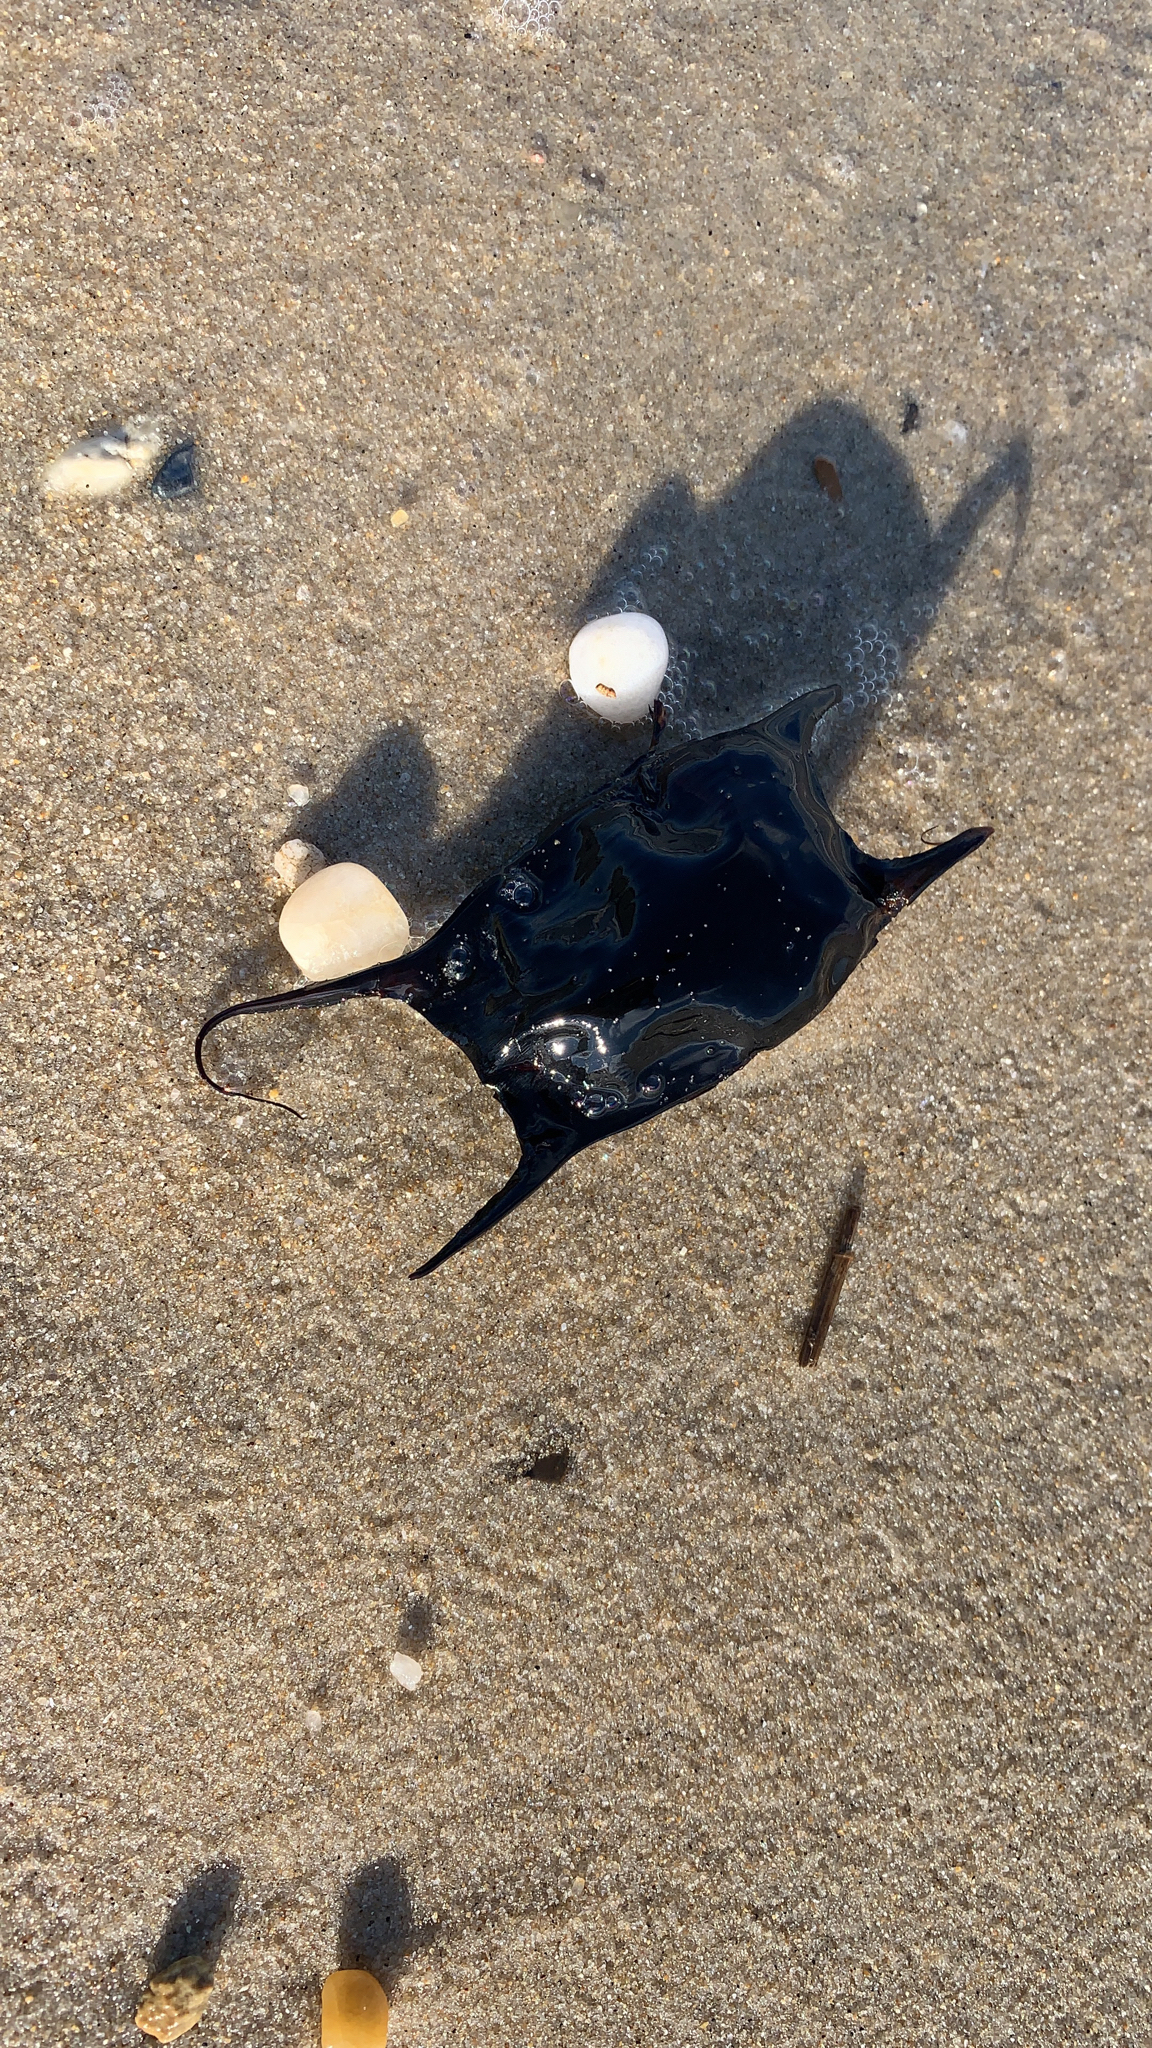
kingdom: Animalia
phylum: Chordata
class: Elasmobranchii
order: Rajiformes
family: Rajidae
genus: Raja
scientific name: Raja eglanteria
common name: Clearnose skate
